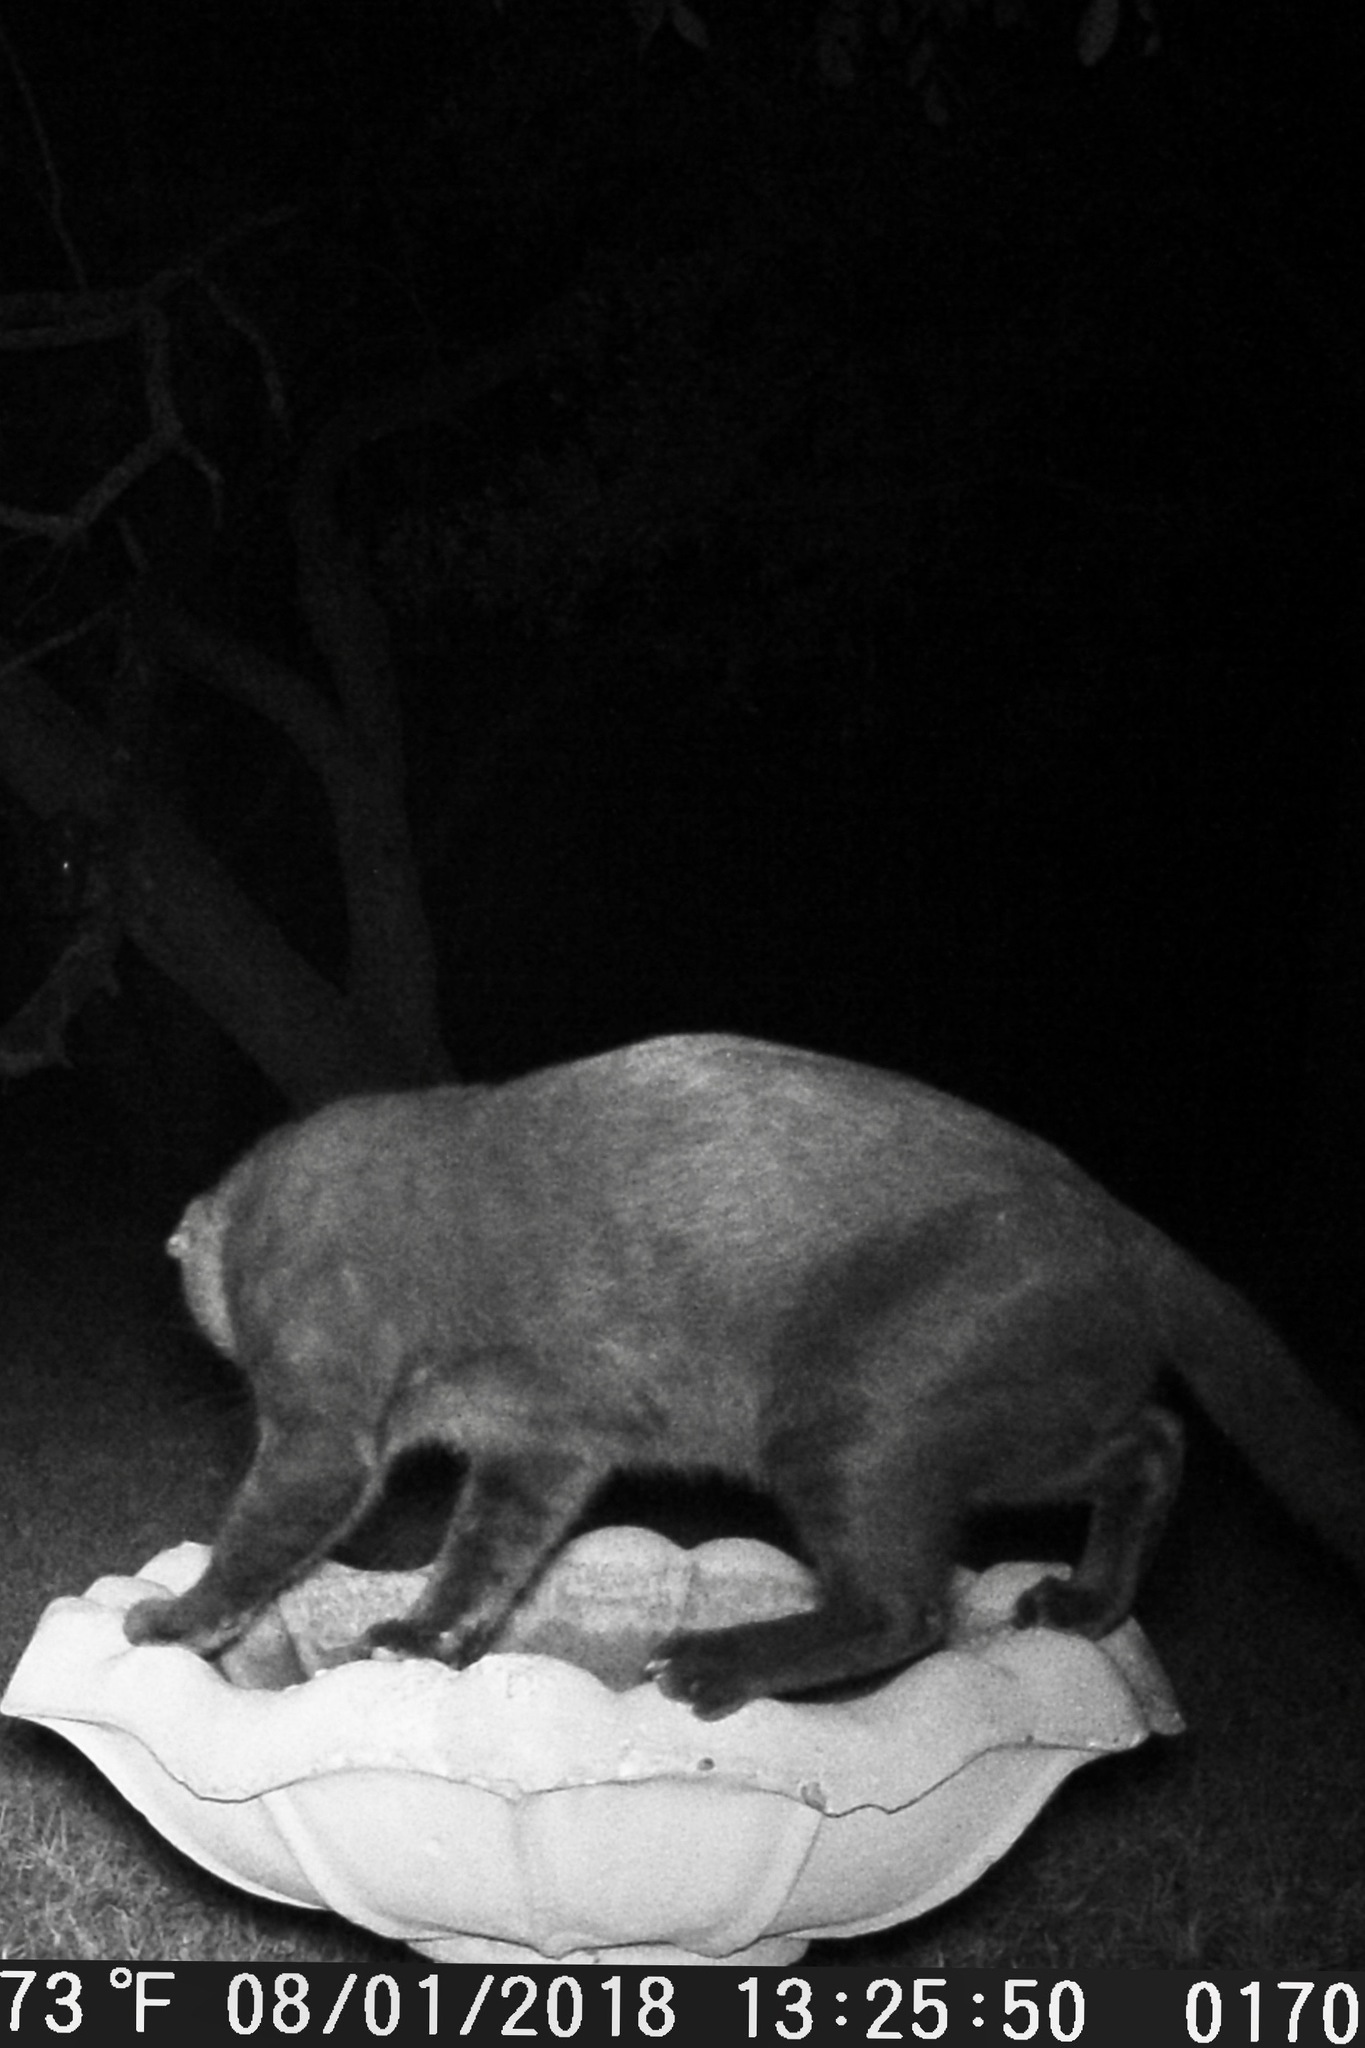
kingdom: Animalia
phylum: Chordata
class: Mammalia
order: Carnivora
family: Felidae
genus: Felis
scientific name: Felis catus
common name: Domestic cat
